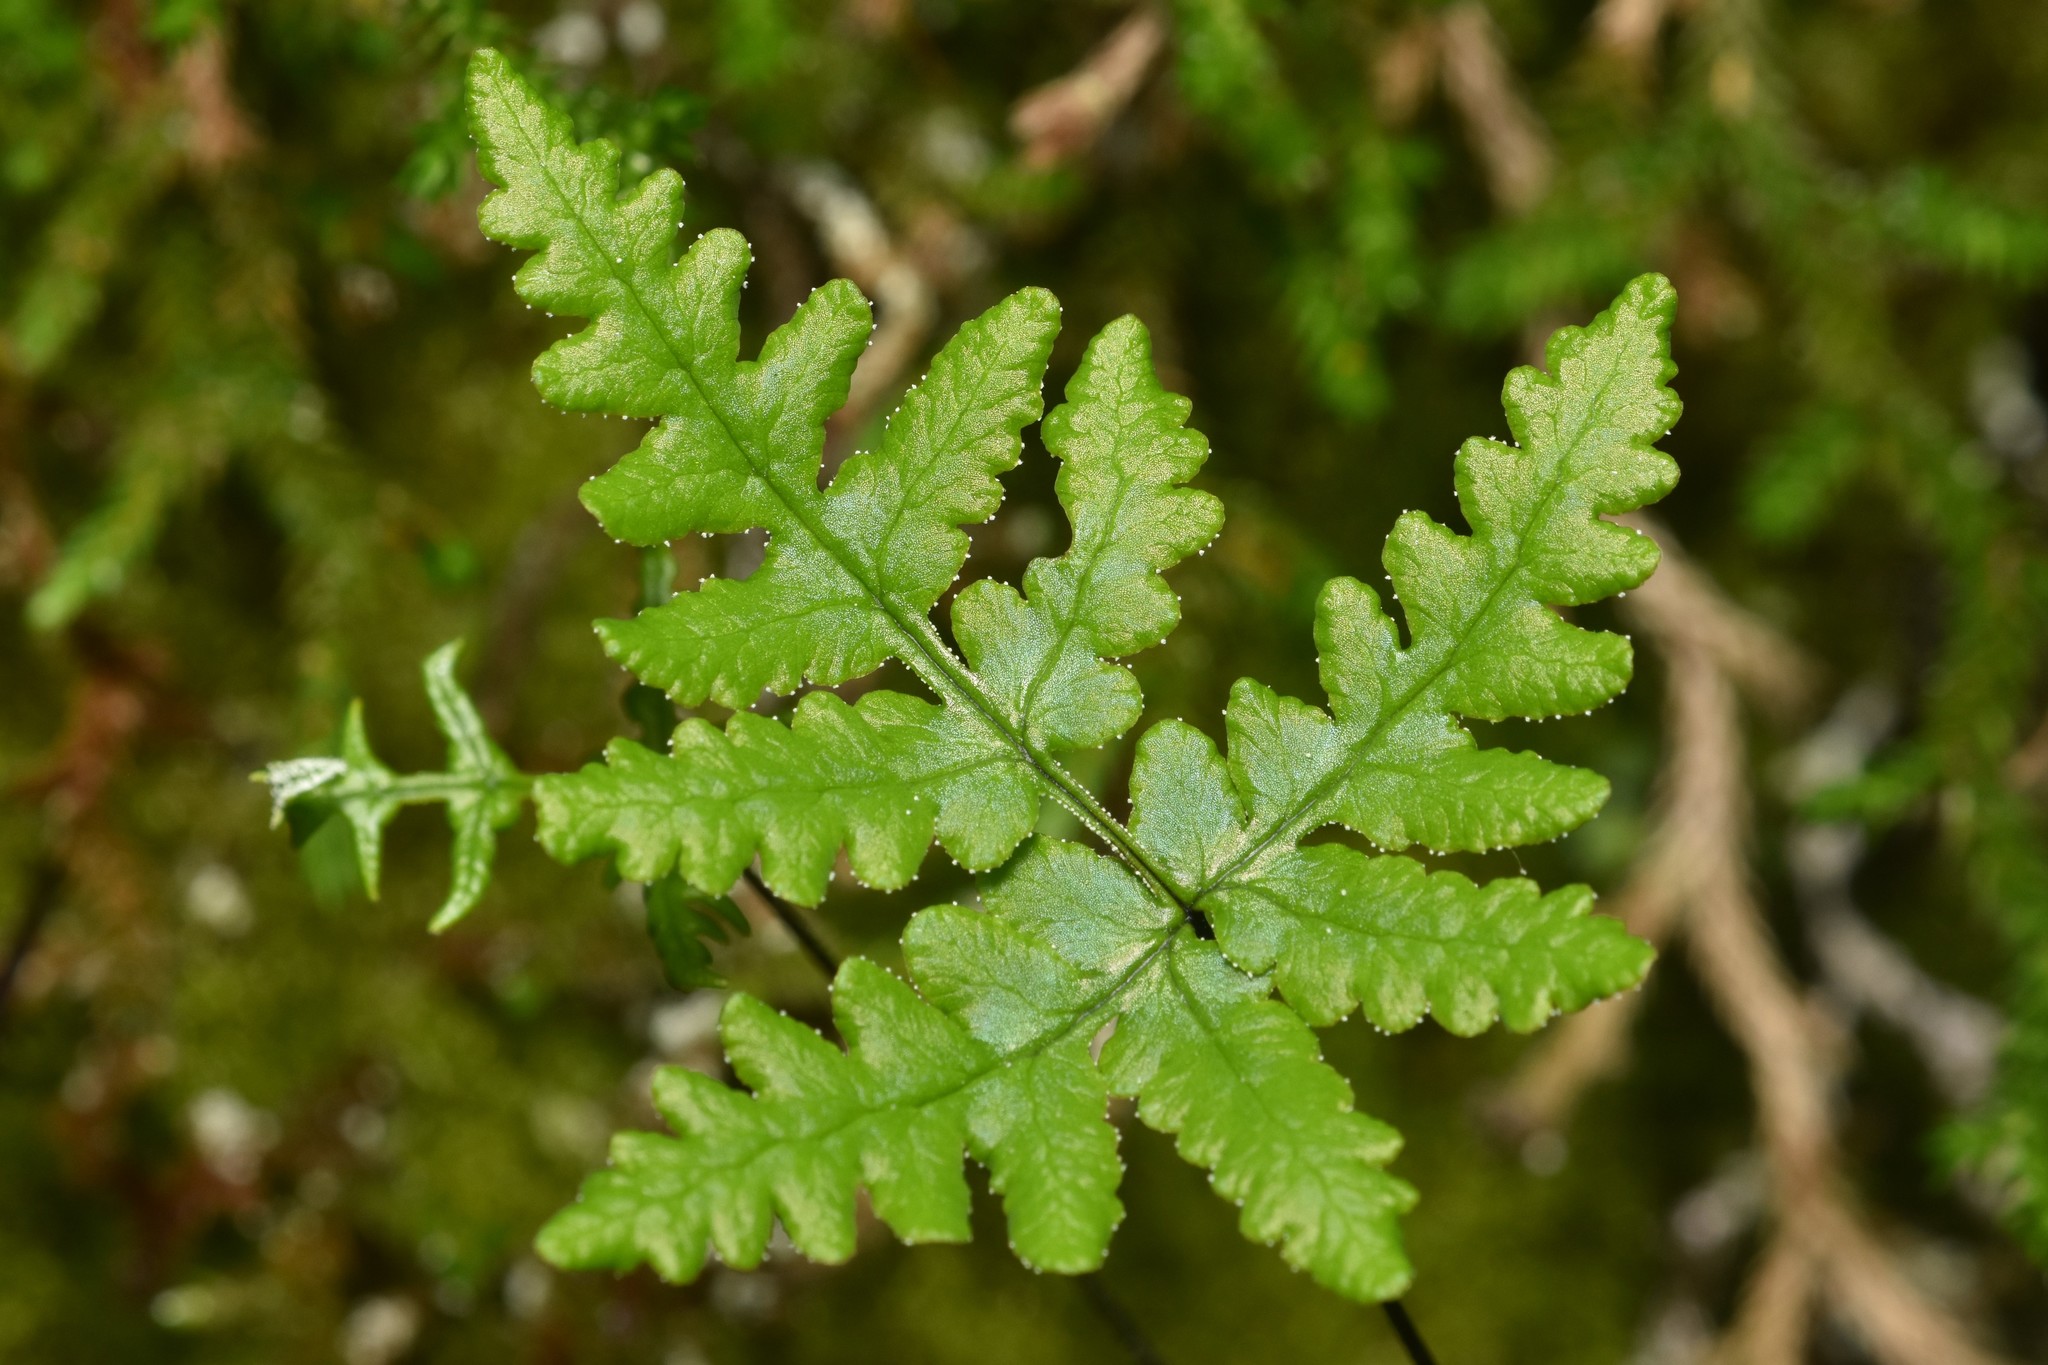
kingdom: Plantae
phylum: Tracheophyta
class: Polypodiopsida
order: Polypodiales
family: Pteridaceae
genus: Pentagramma
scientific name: Pentagramma triangularis
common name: Gold fern
